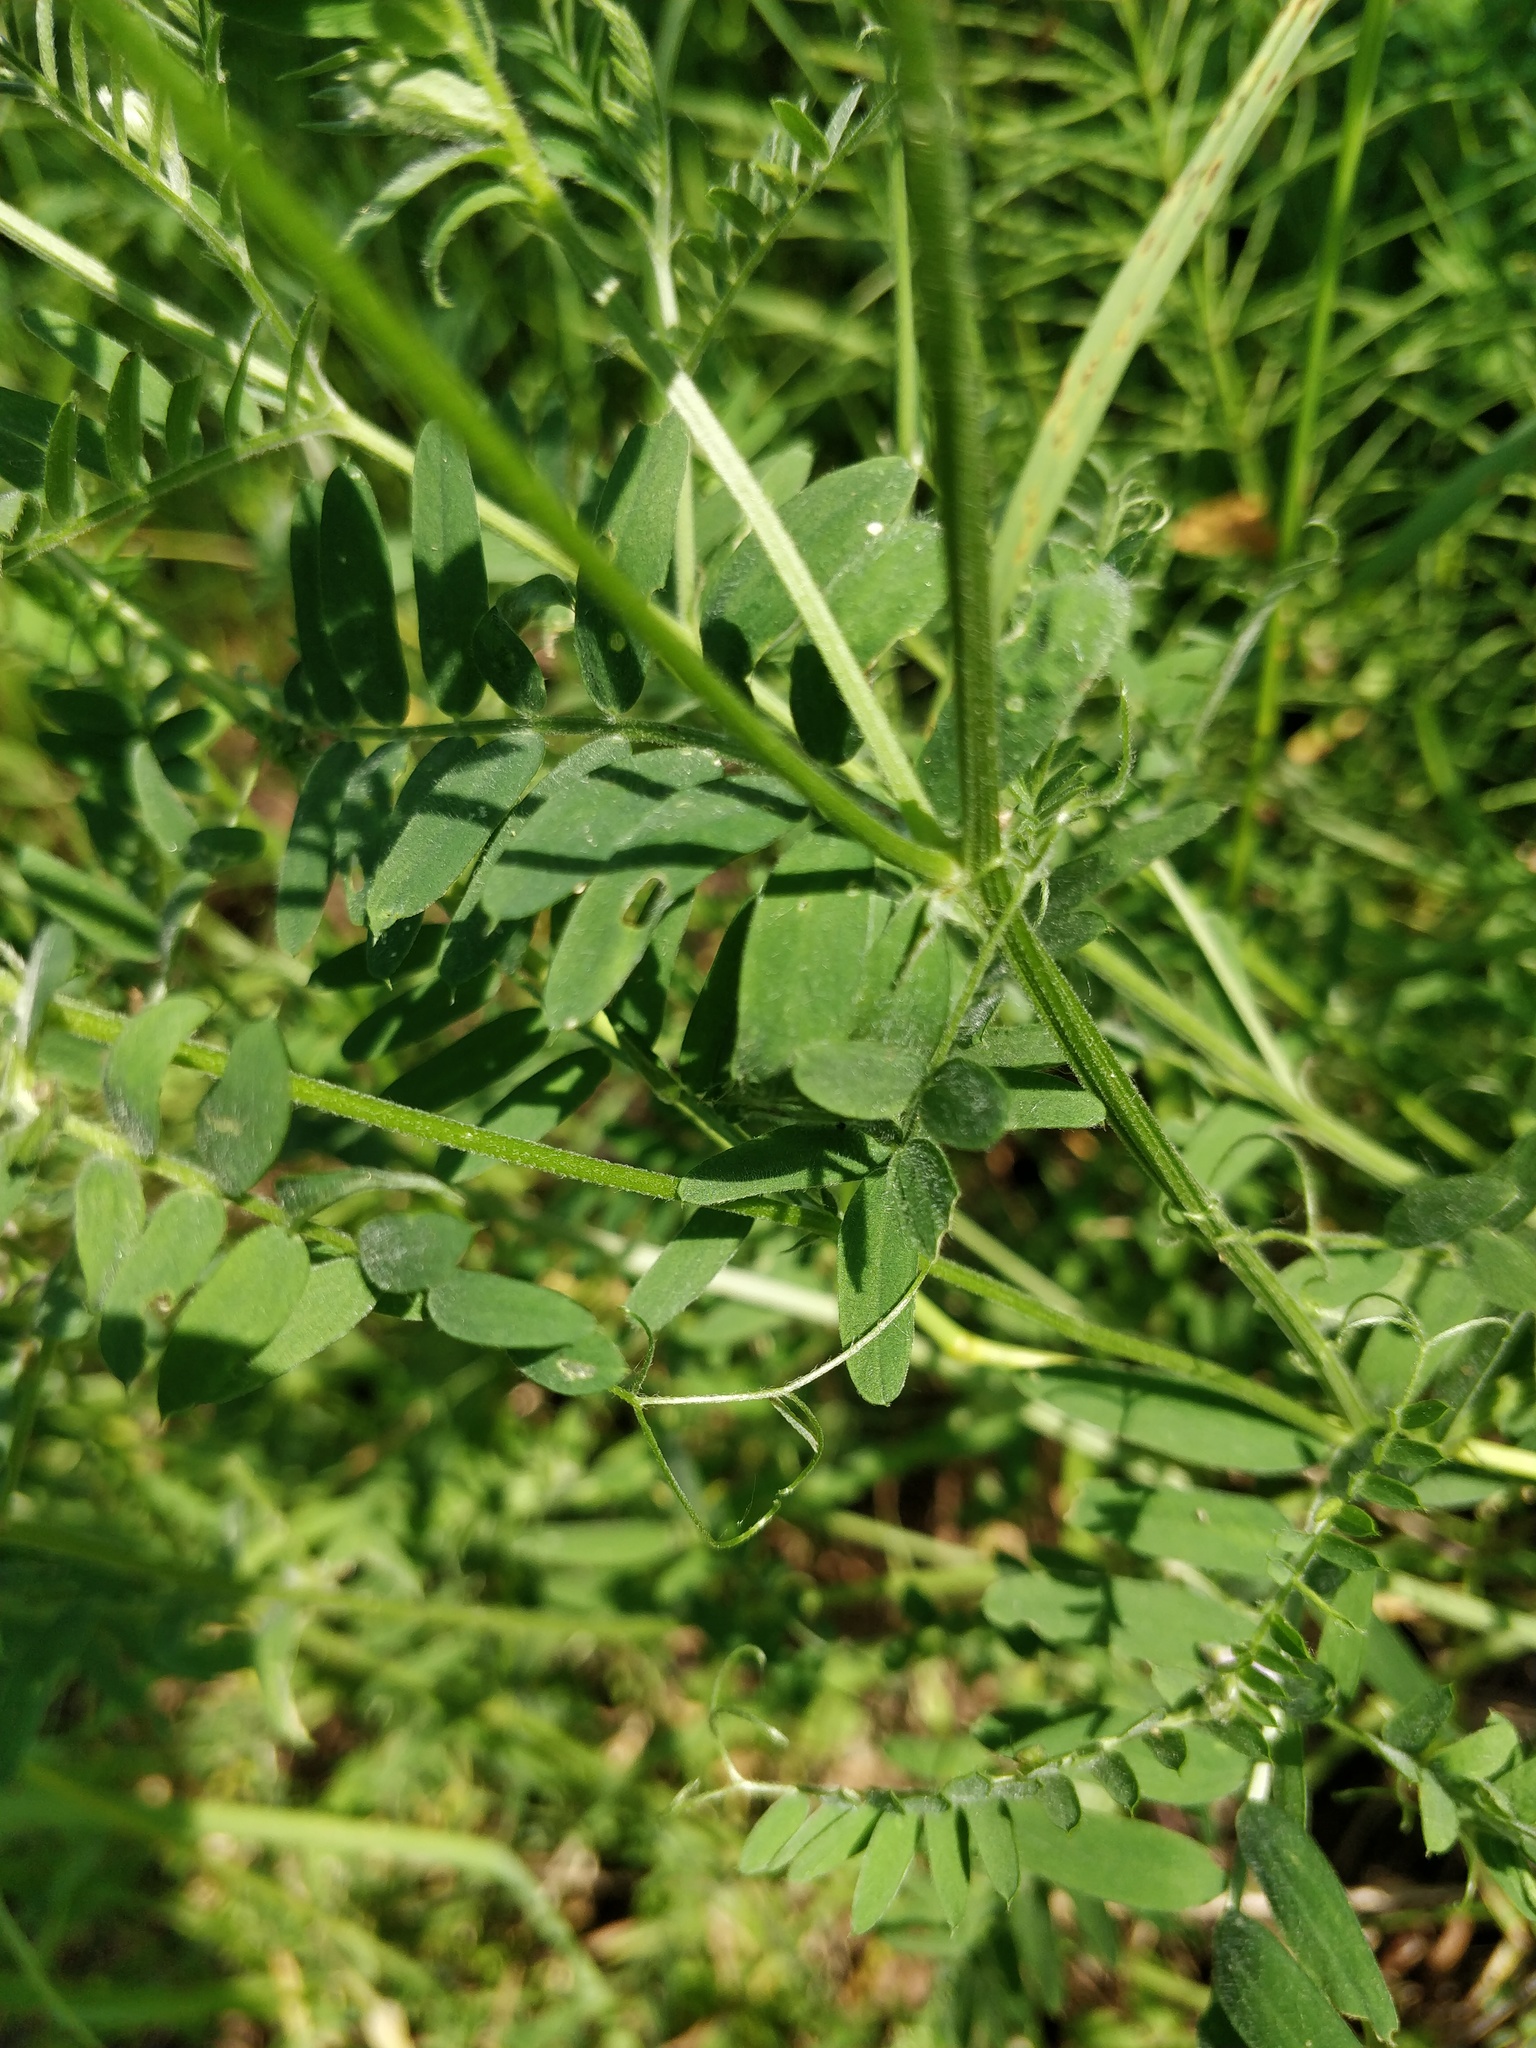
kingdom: Plantae
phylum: Tracheophyta
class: Magnoliopsida
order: Fabales
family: Fabaceae
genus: Vicia
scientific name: Vicia cracca
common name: Bird vetch
